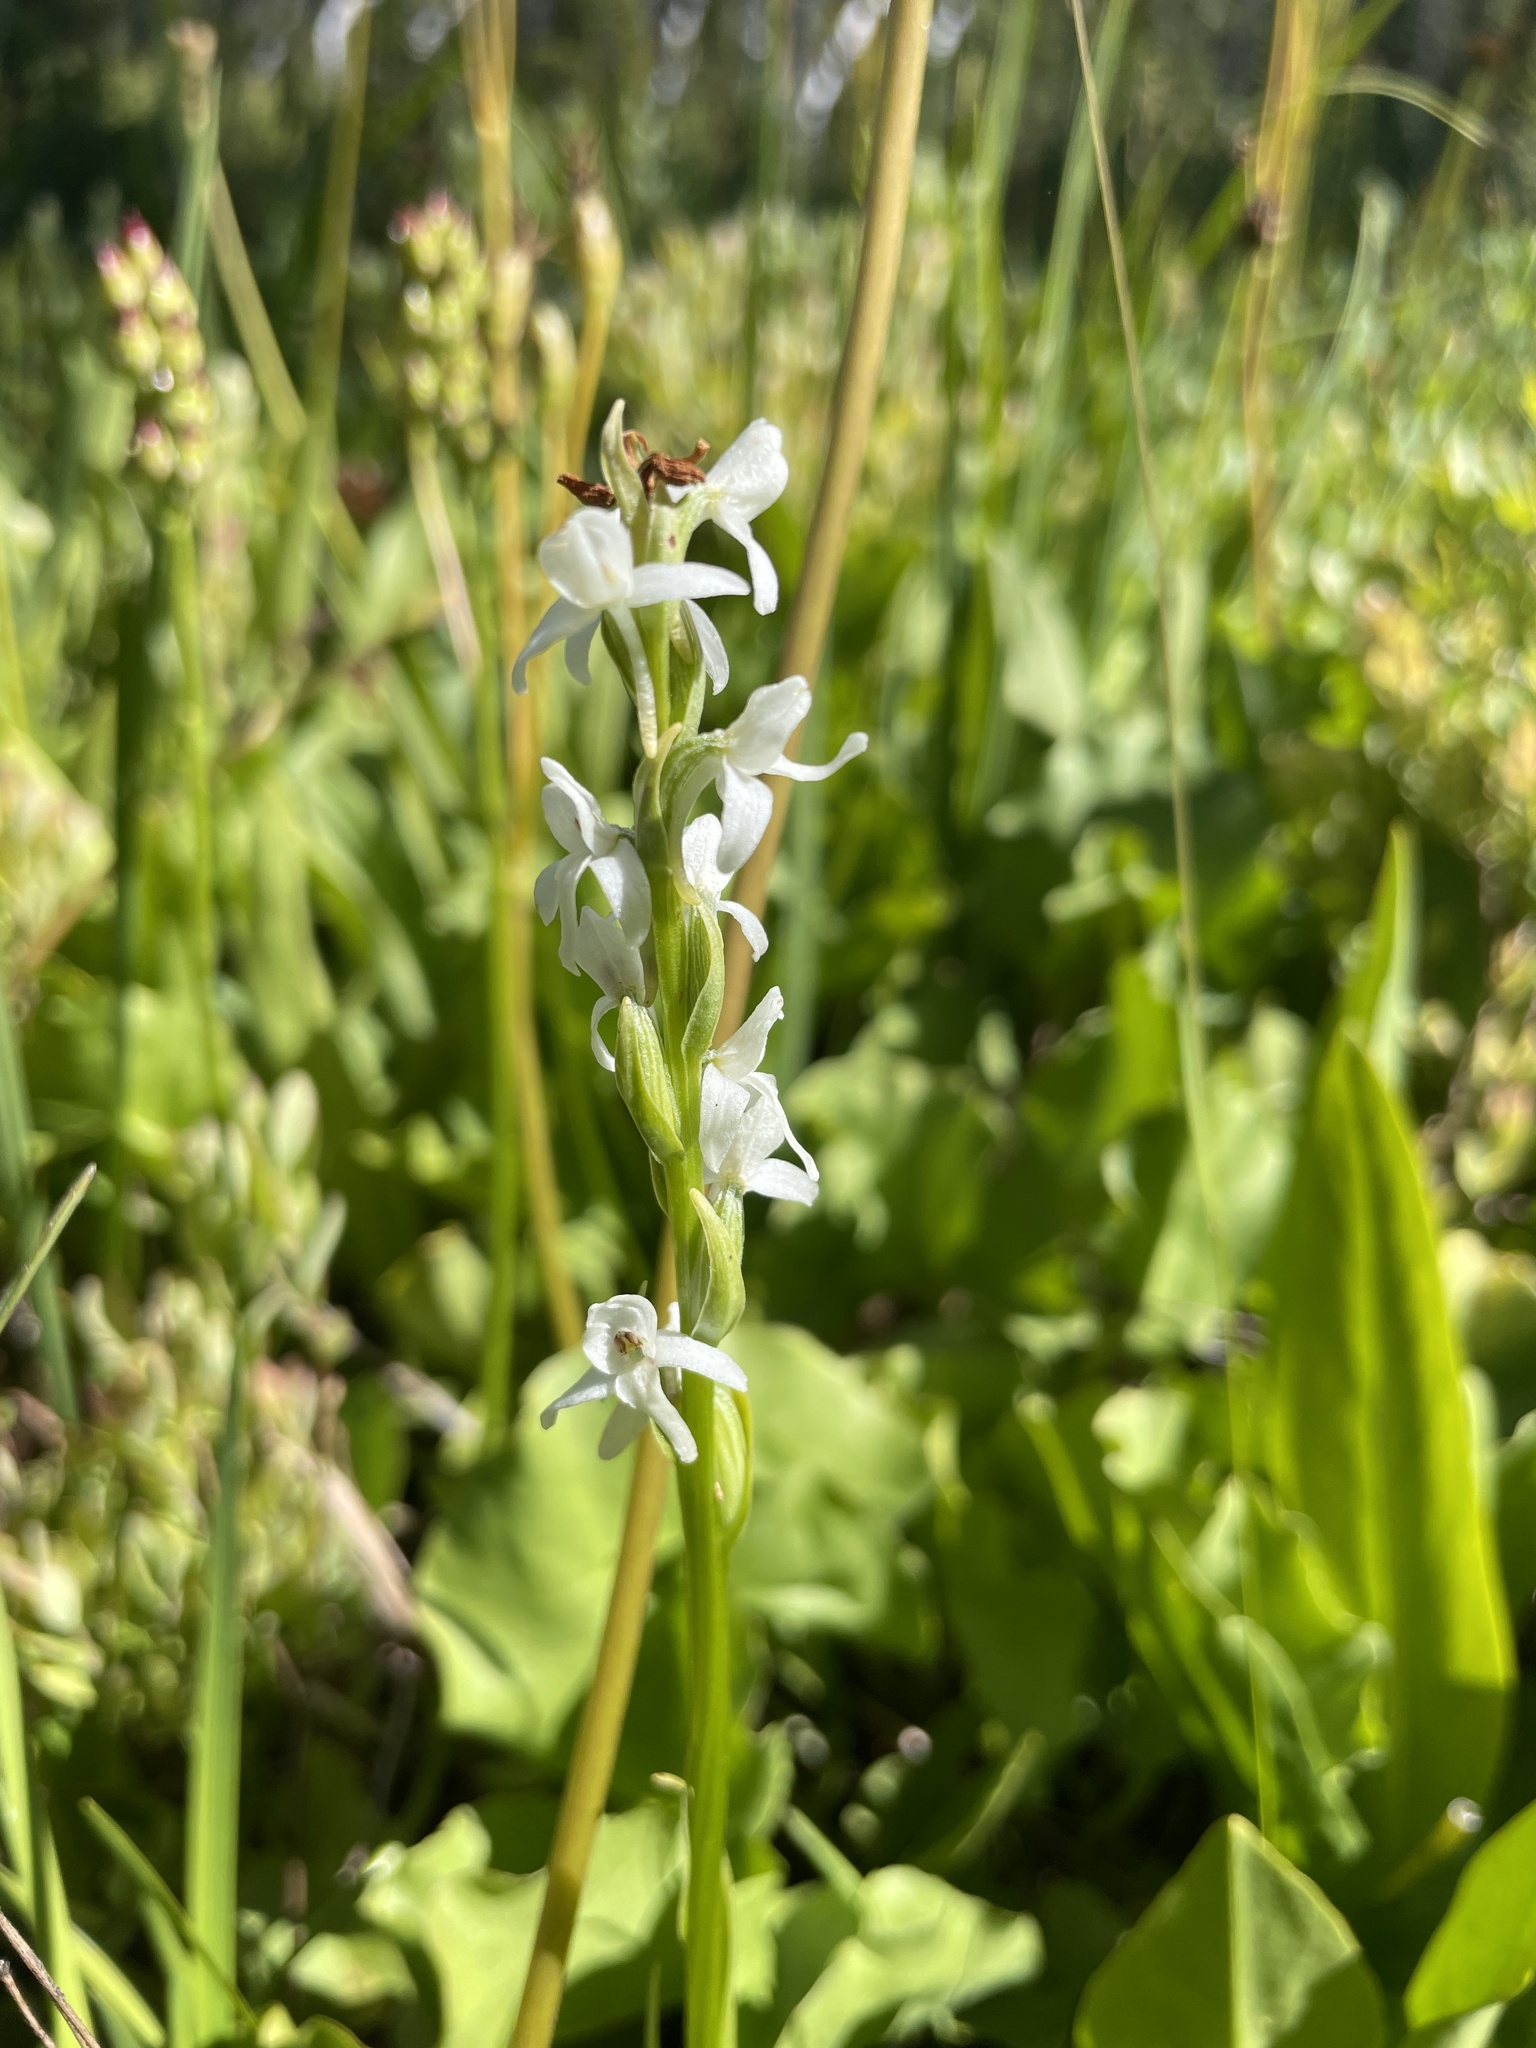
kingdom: Plantae
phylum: Tracheophyta
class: Liliopsida
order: Asparagales
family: Orchidaceae
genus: Platanthera
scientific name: Platanthera dilatata
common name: Bog candles
